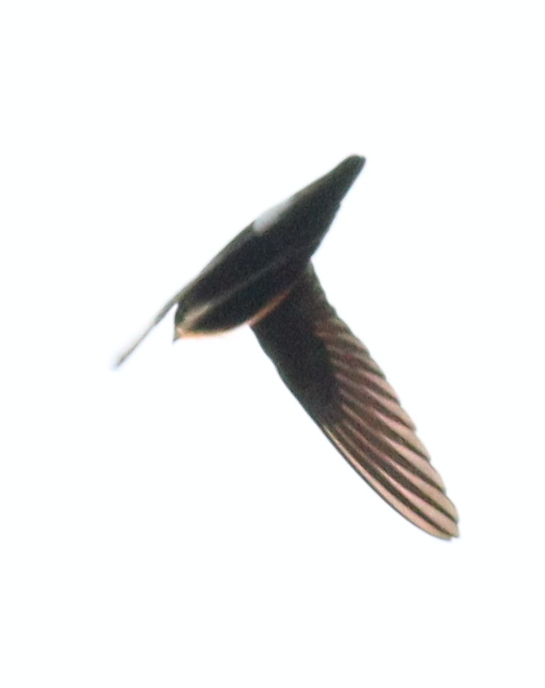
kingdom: Animalia
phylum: Chordata
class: Aves
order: Apodiformes
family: Apodidae
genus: Apus
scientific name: Apus affinis
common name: Little swift
